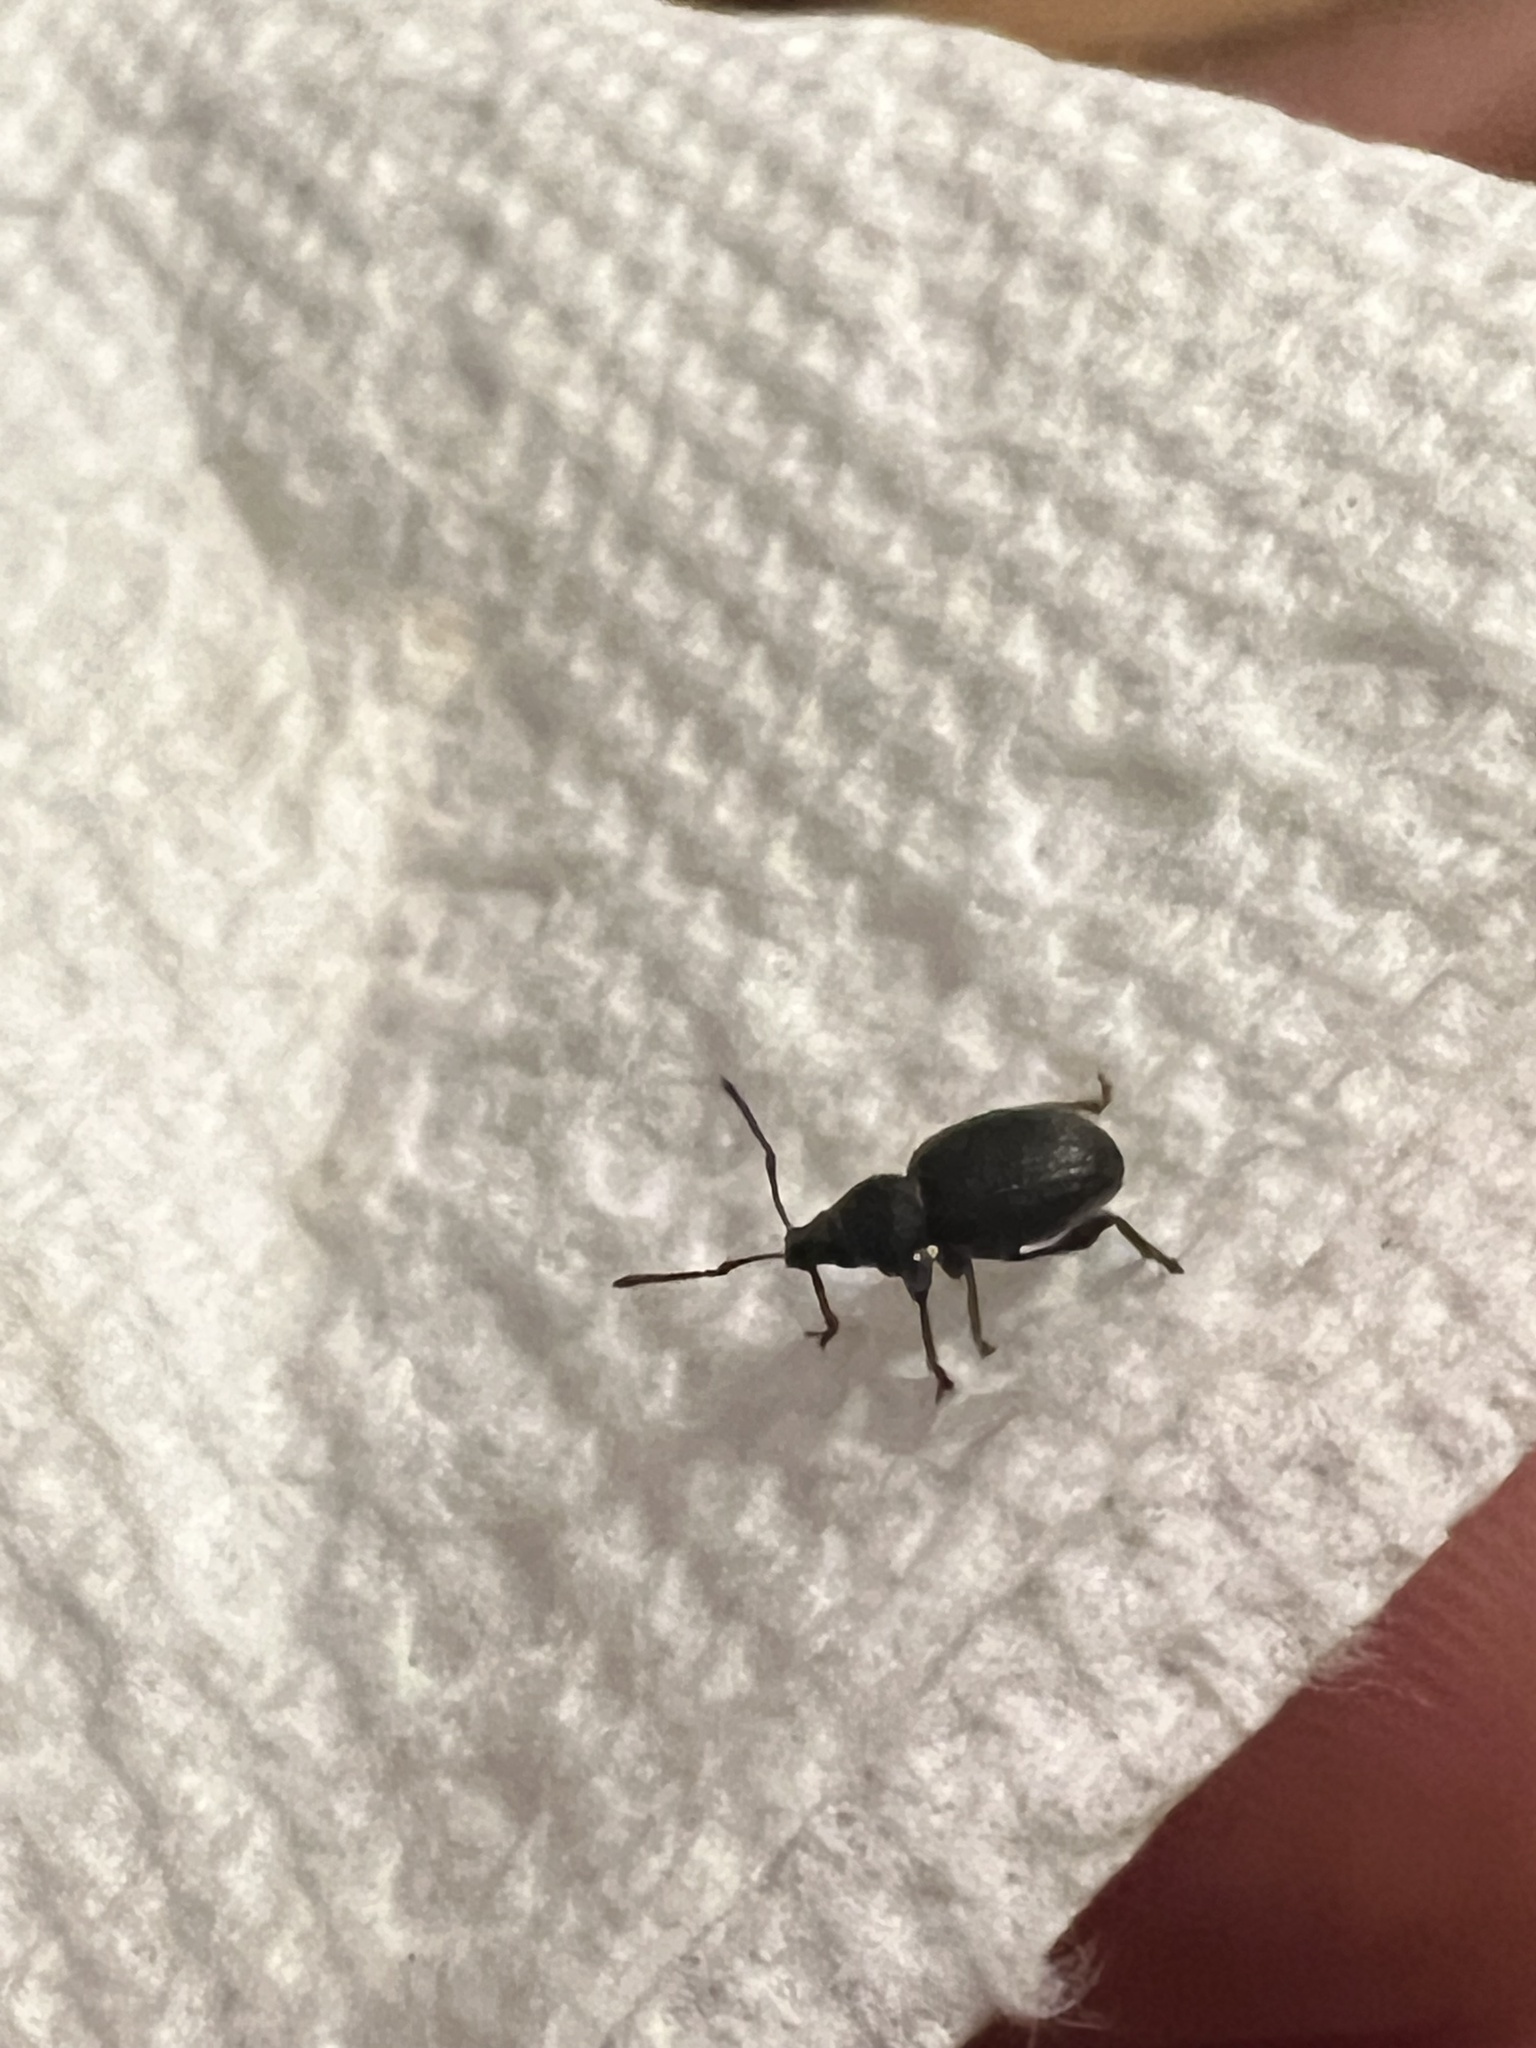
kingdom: Animalia
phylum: Arthropoda
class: Insecta
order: Coleoptera
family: Curculionidae
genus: Otiorhynchus
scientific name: Otiorhynchus ovatus
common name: Strawberry root weevil
